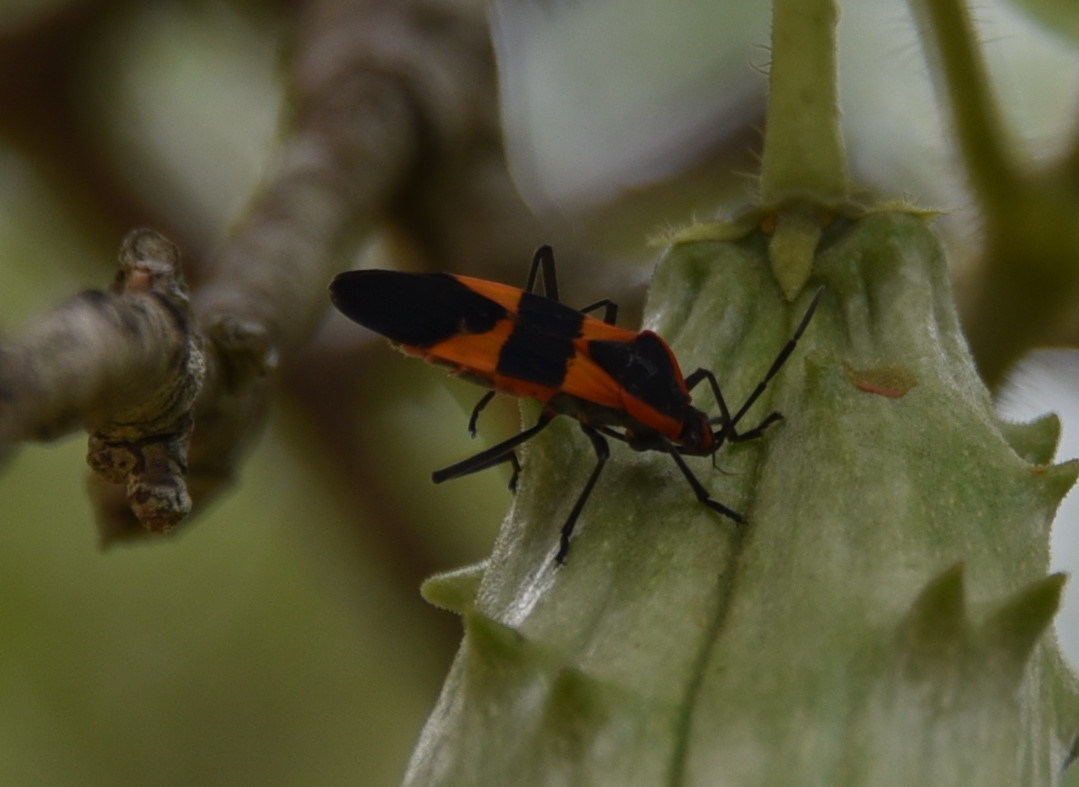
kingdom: Animalia
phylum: Arthropoda
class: Insecta
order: Hemiptera
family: Lygaeidae
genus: Oncopeltus
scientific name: Oncopeltus fasciatus
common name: Large milkweed bug
